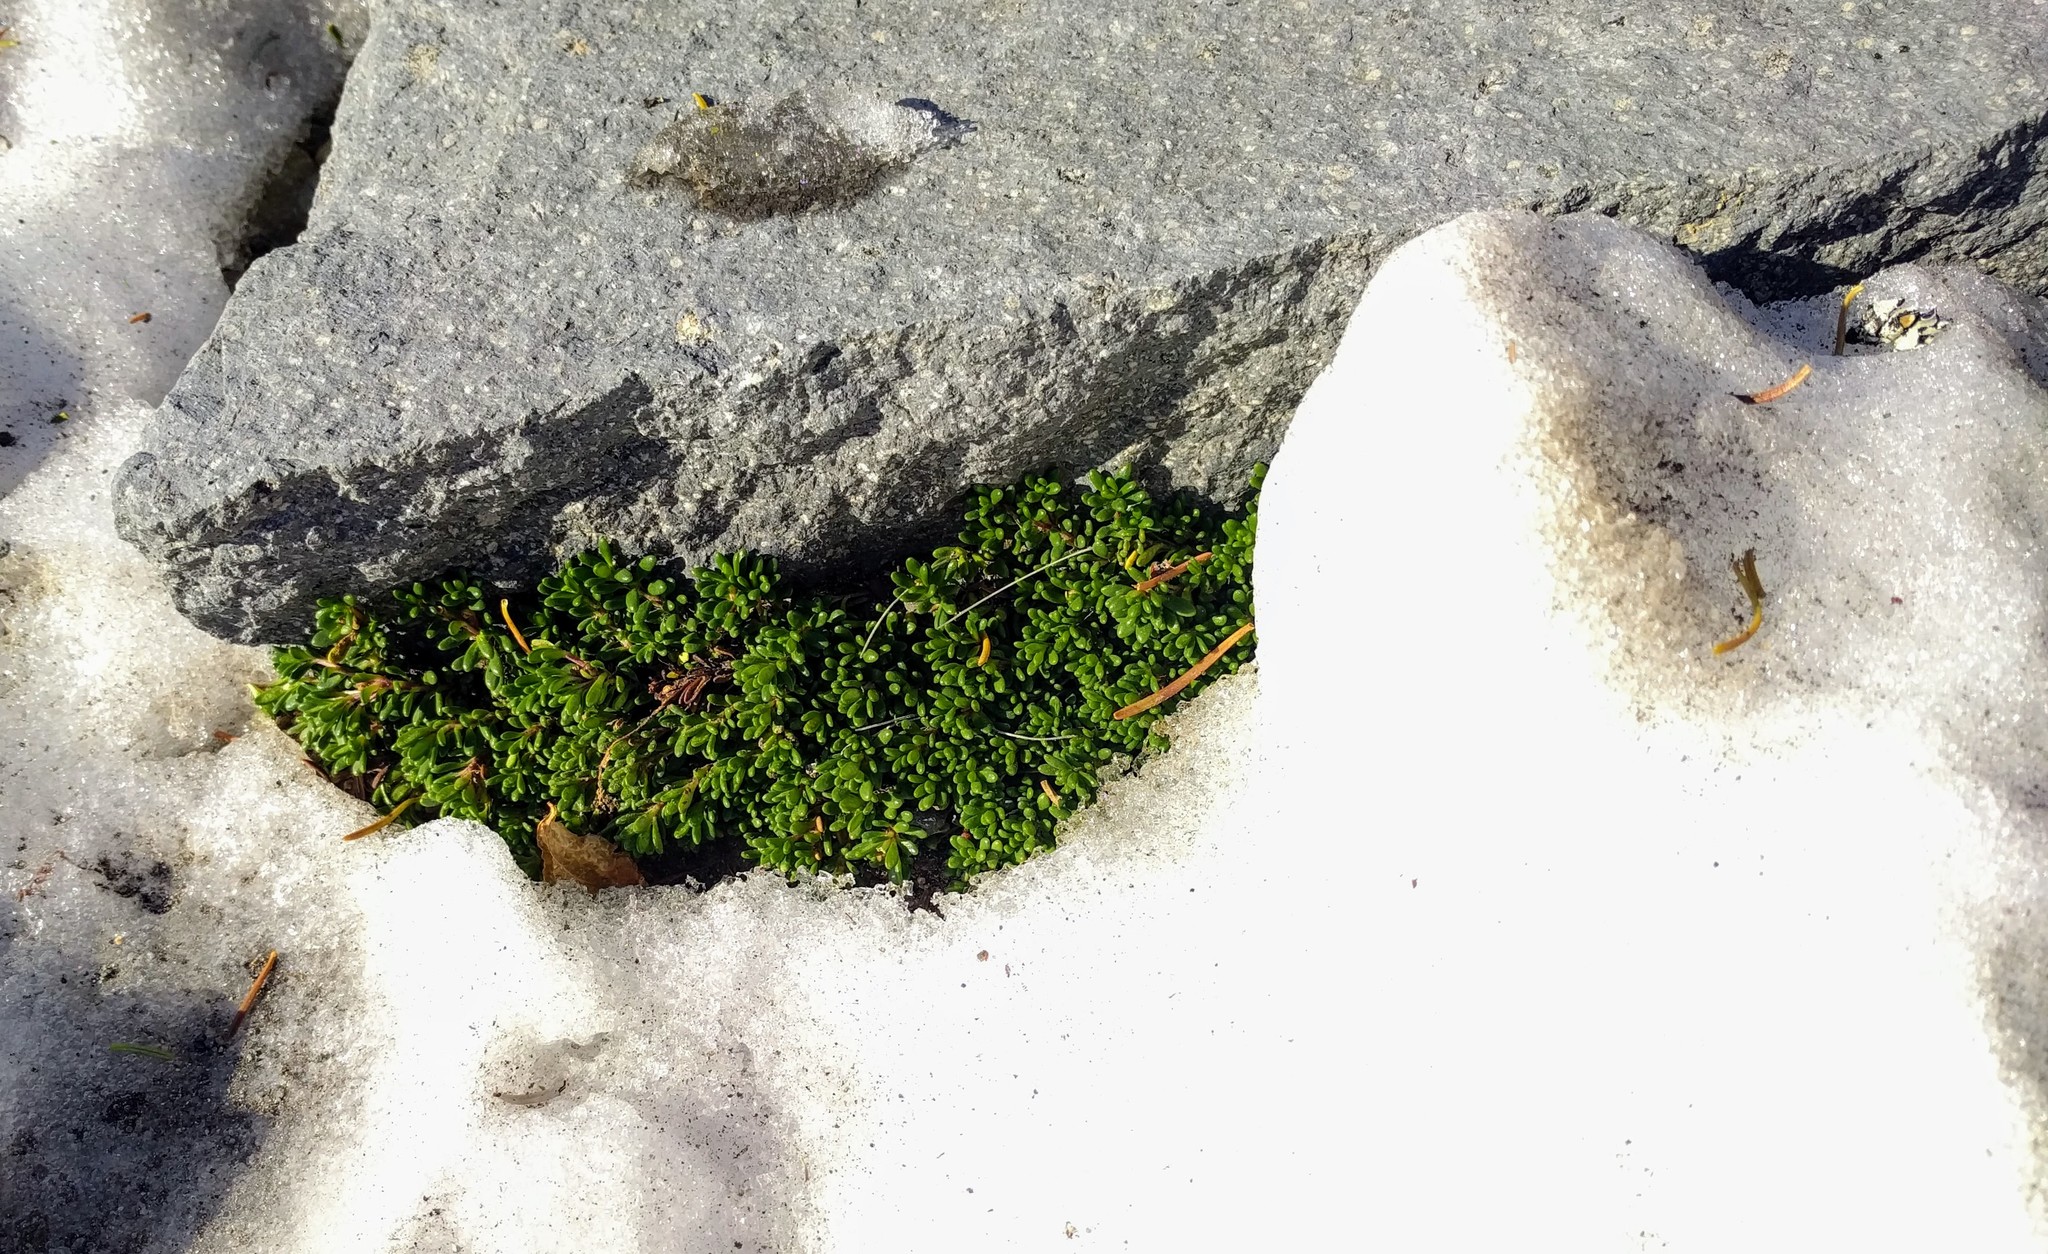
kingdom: Plantae
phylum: Tracheophyta
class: Magnoliopsida
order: Saxifragales
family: Saxifragaceae
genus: Micranthes
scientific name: Micranthes tolmiei
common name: Tolmie's saxifrage
